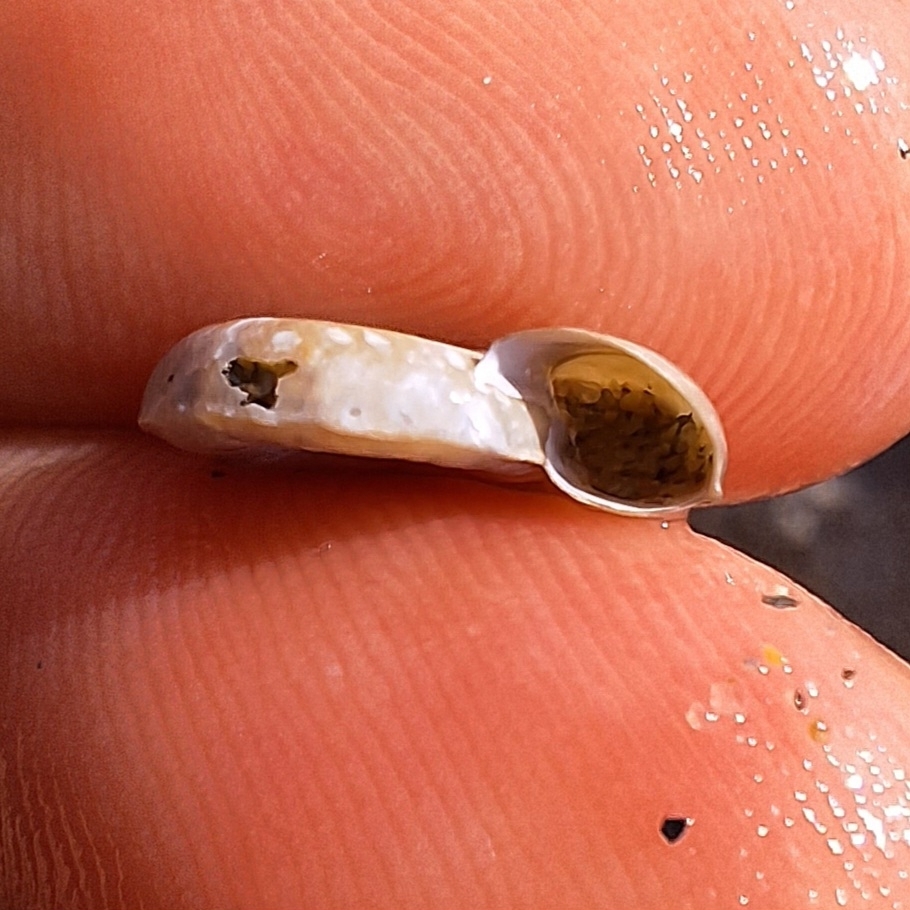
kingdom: Animalia
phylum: Mollusca
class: Gastropoda
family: Planorbidae
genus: Planorbis
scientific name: Planorbis planorbis
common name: Margined ramshorn
